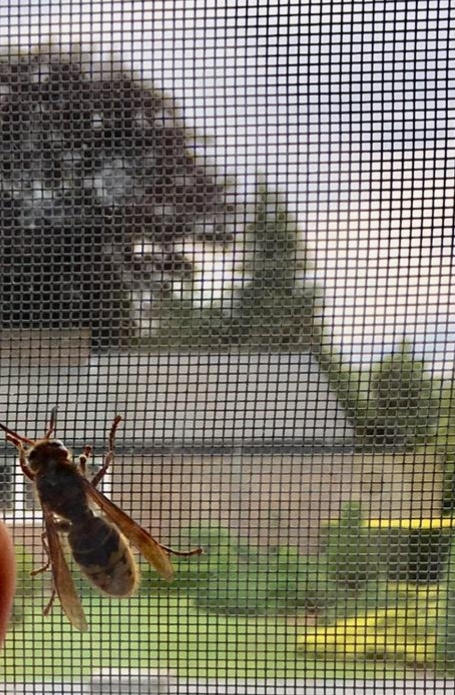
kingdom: Animalia
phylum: Arthropoda
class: Insecta
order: Hymenoptera
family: Vespidae
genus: Vespa
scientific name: Vespa crabro
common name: Hornet
